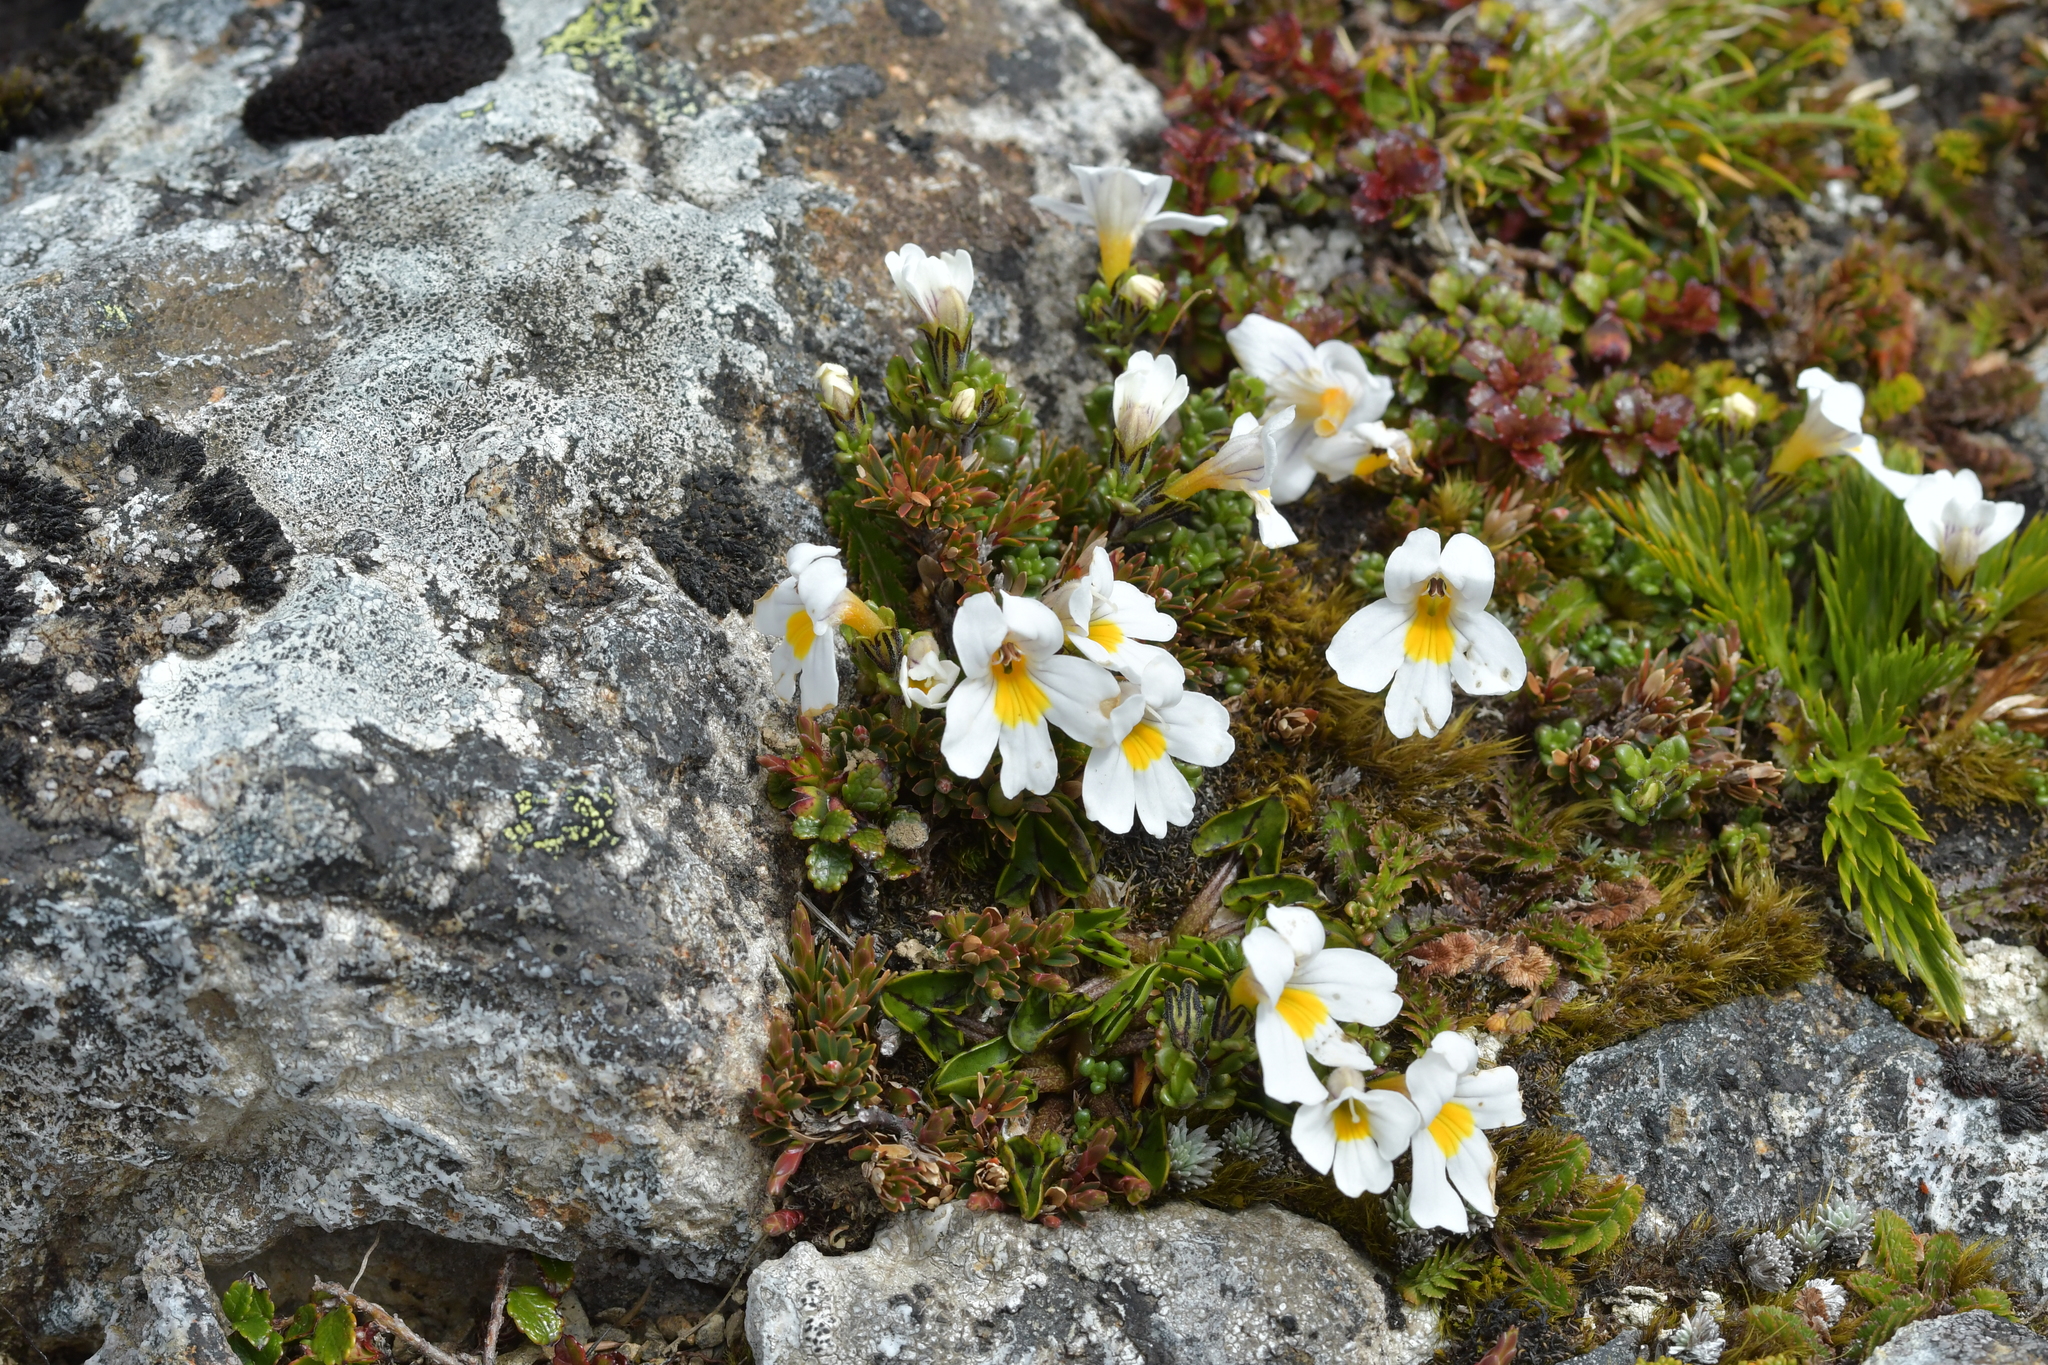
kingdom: Plantae
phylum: Tracheophyta
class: Magnoliopsida
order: Lamiales
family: Orobanchaceae
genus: Euphrasia
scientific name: Euphrasia revoluta
